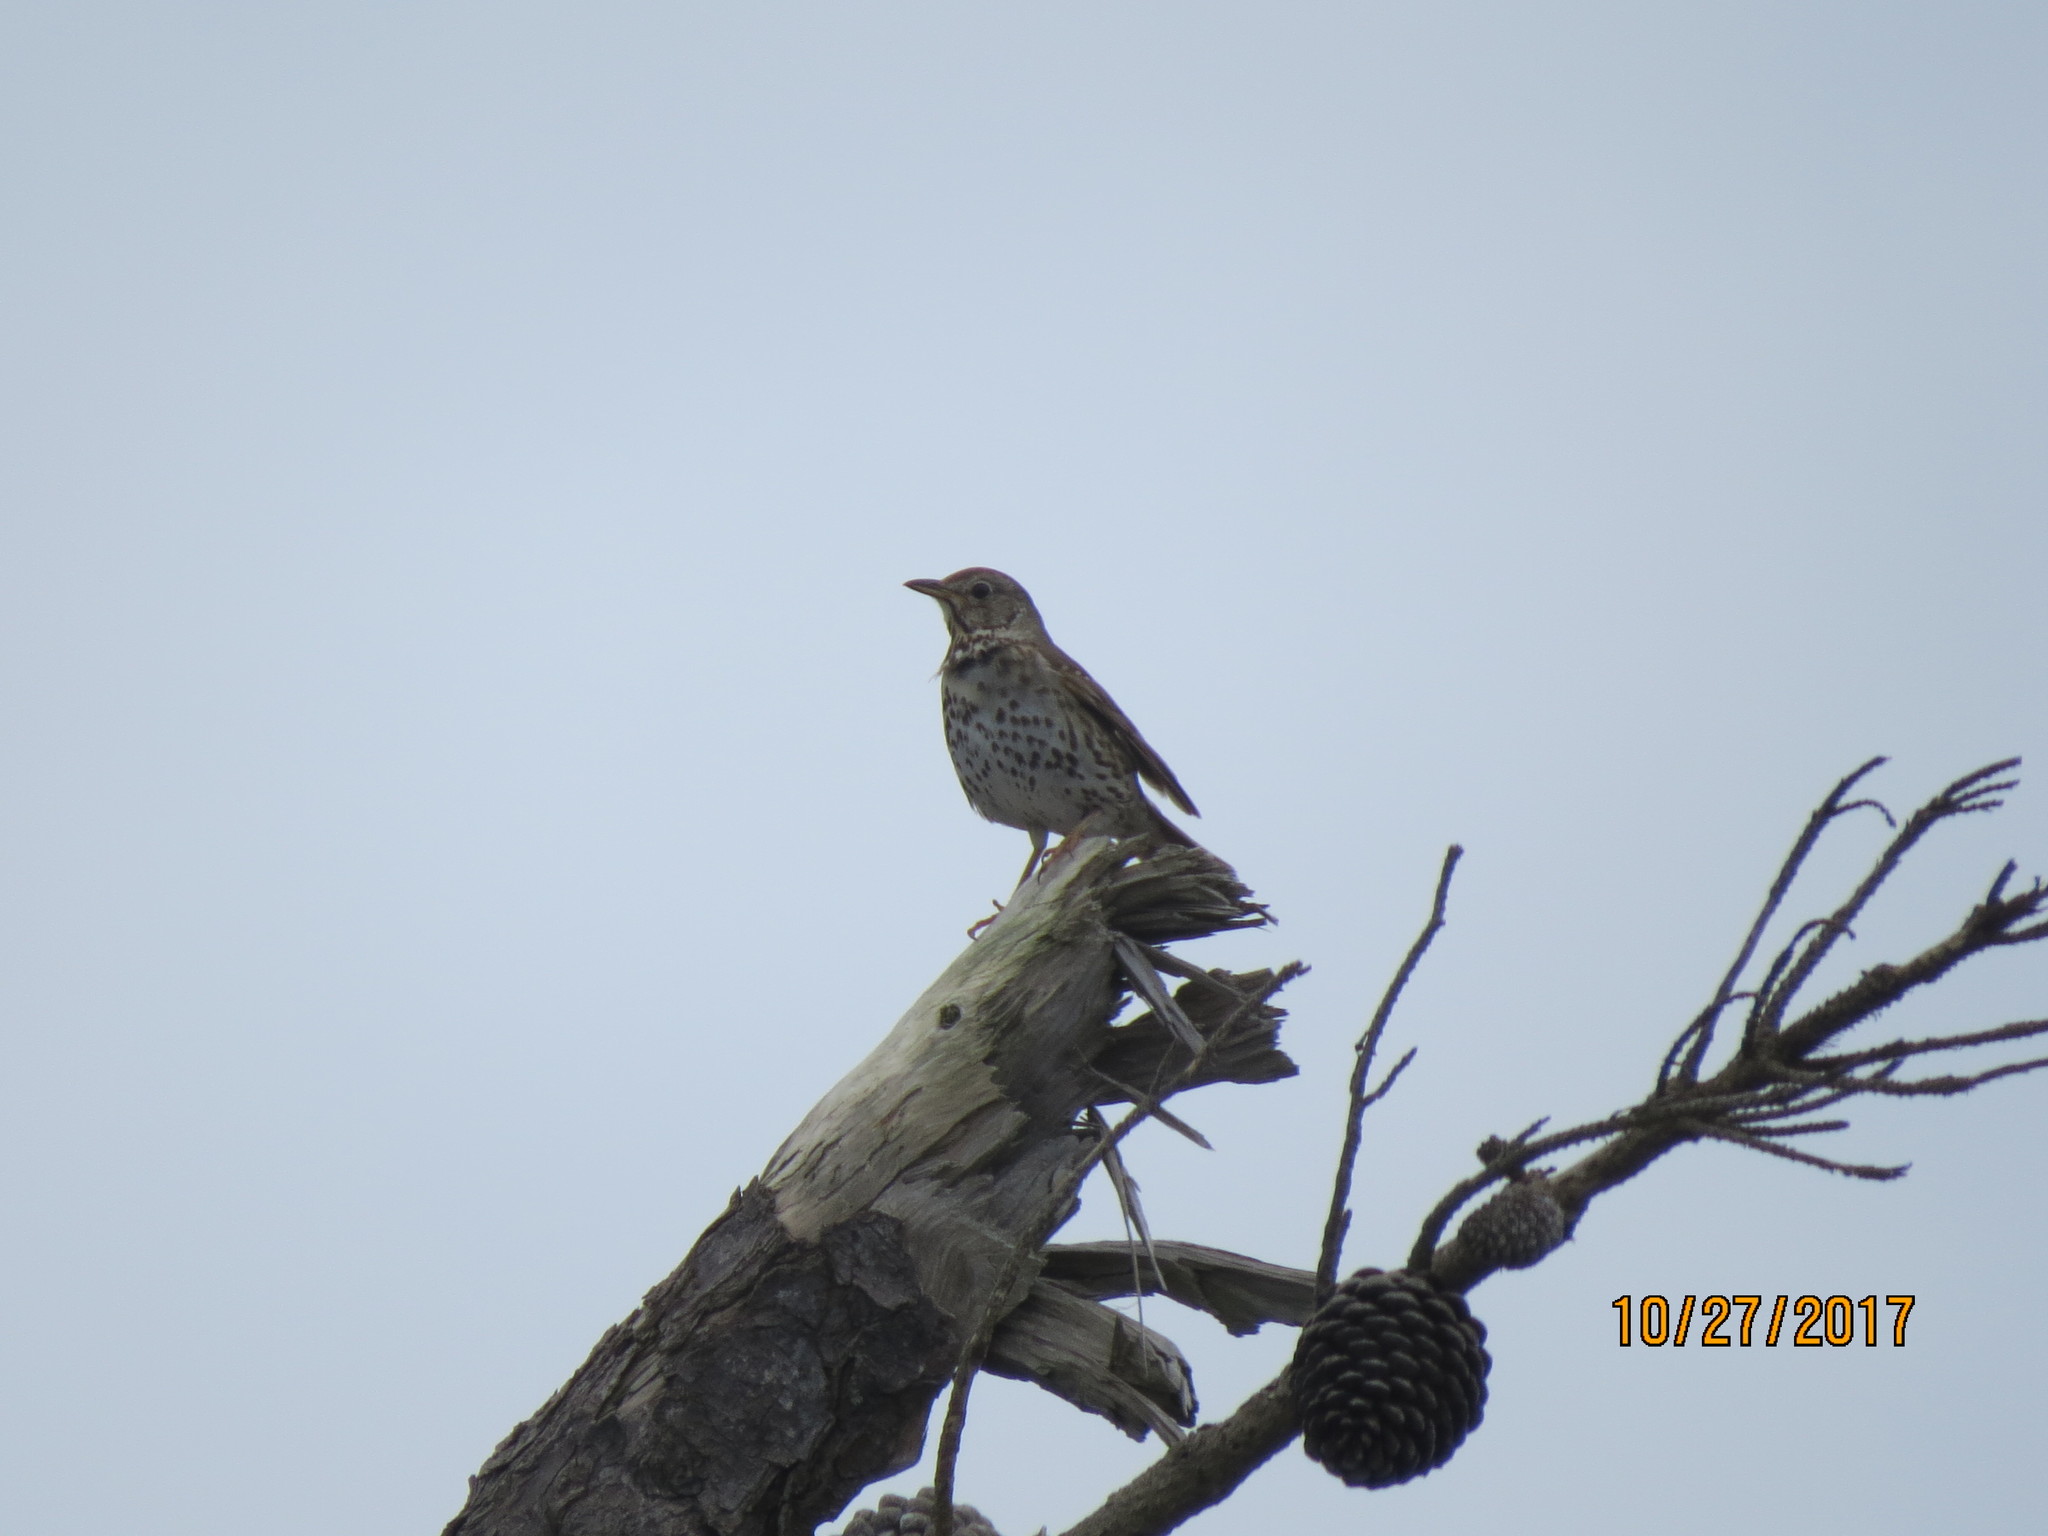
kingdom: Animalia
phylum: Chordata
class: Aves
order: Passeriformes
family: Turdidae
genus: Turdus
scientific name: Turdus philomelos
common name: Song thrush
